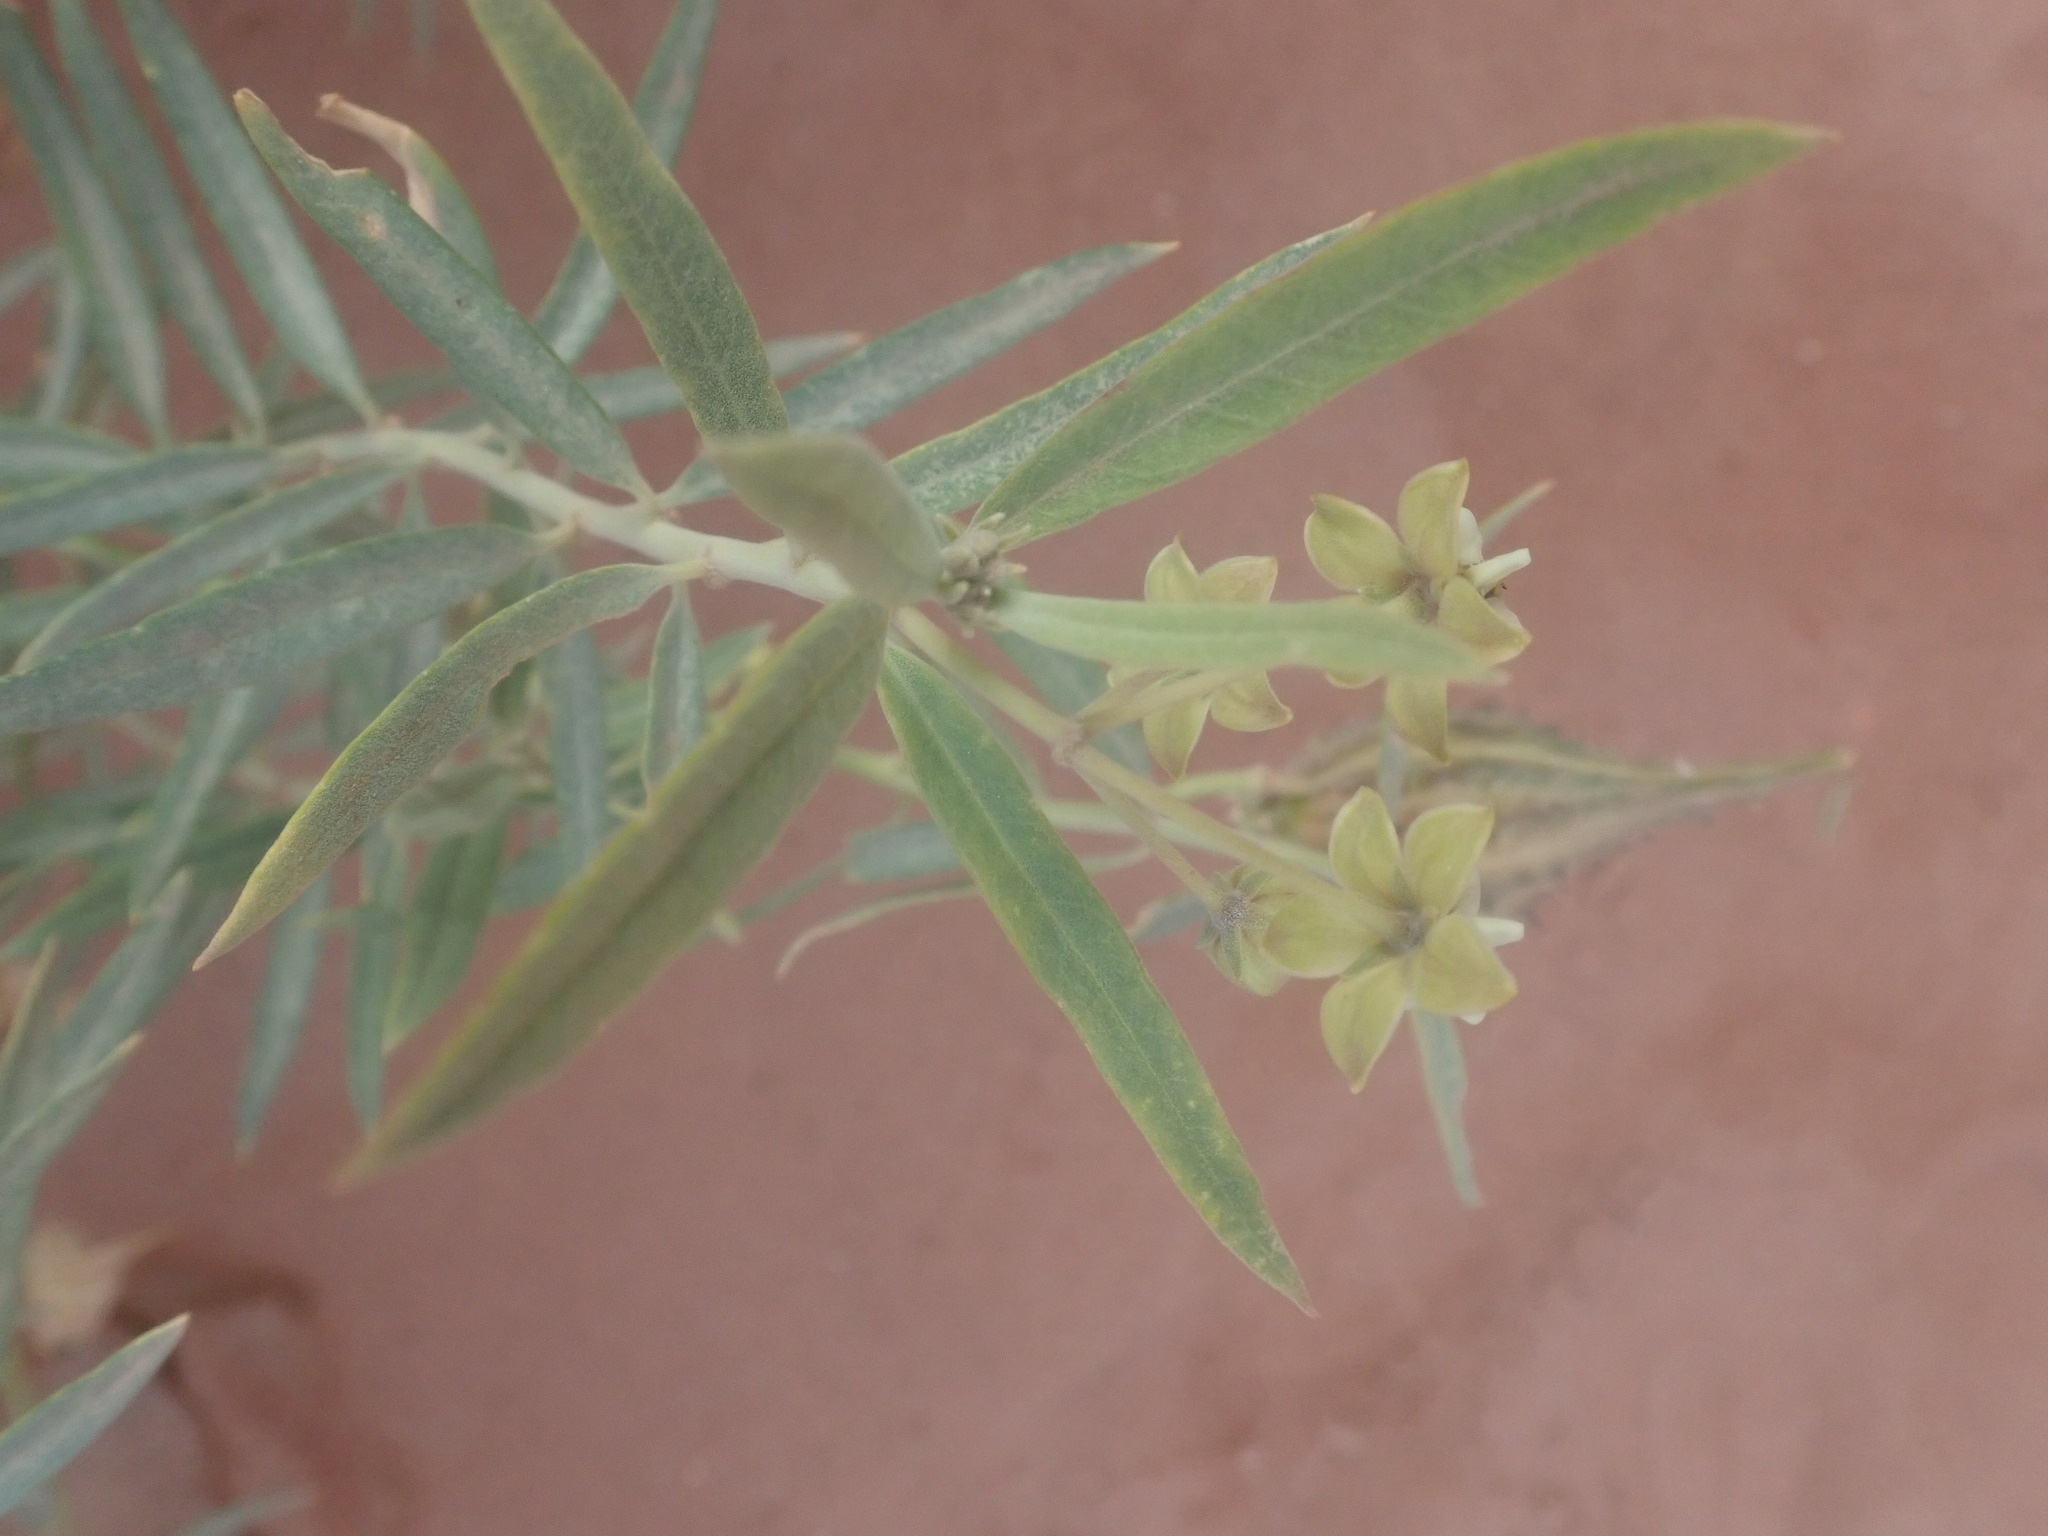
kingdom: Plantae
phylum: Tracheophyta
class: Magnoliopsida
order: Gentianales
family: Apocynaceae
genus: Gomphocarpus
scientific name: Gomphocarpus sinaicus
